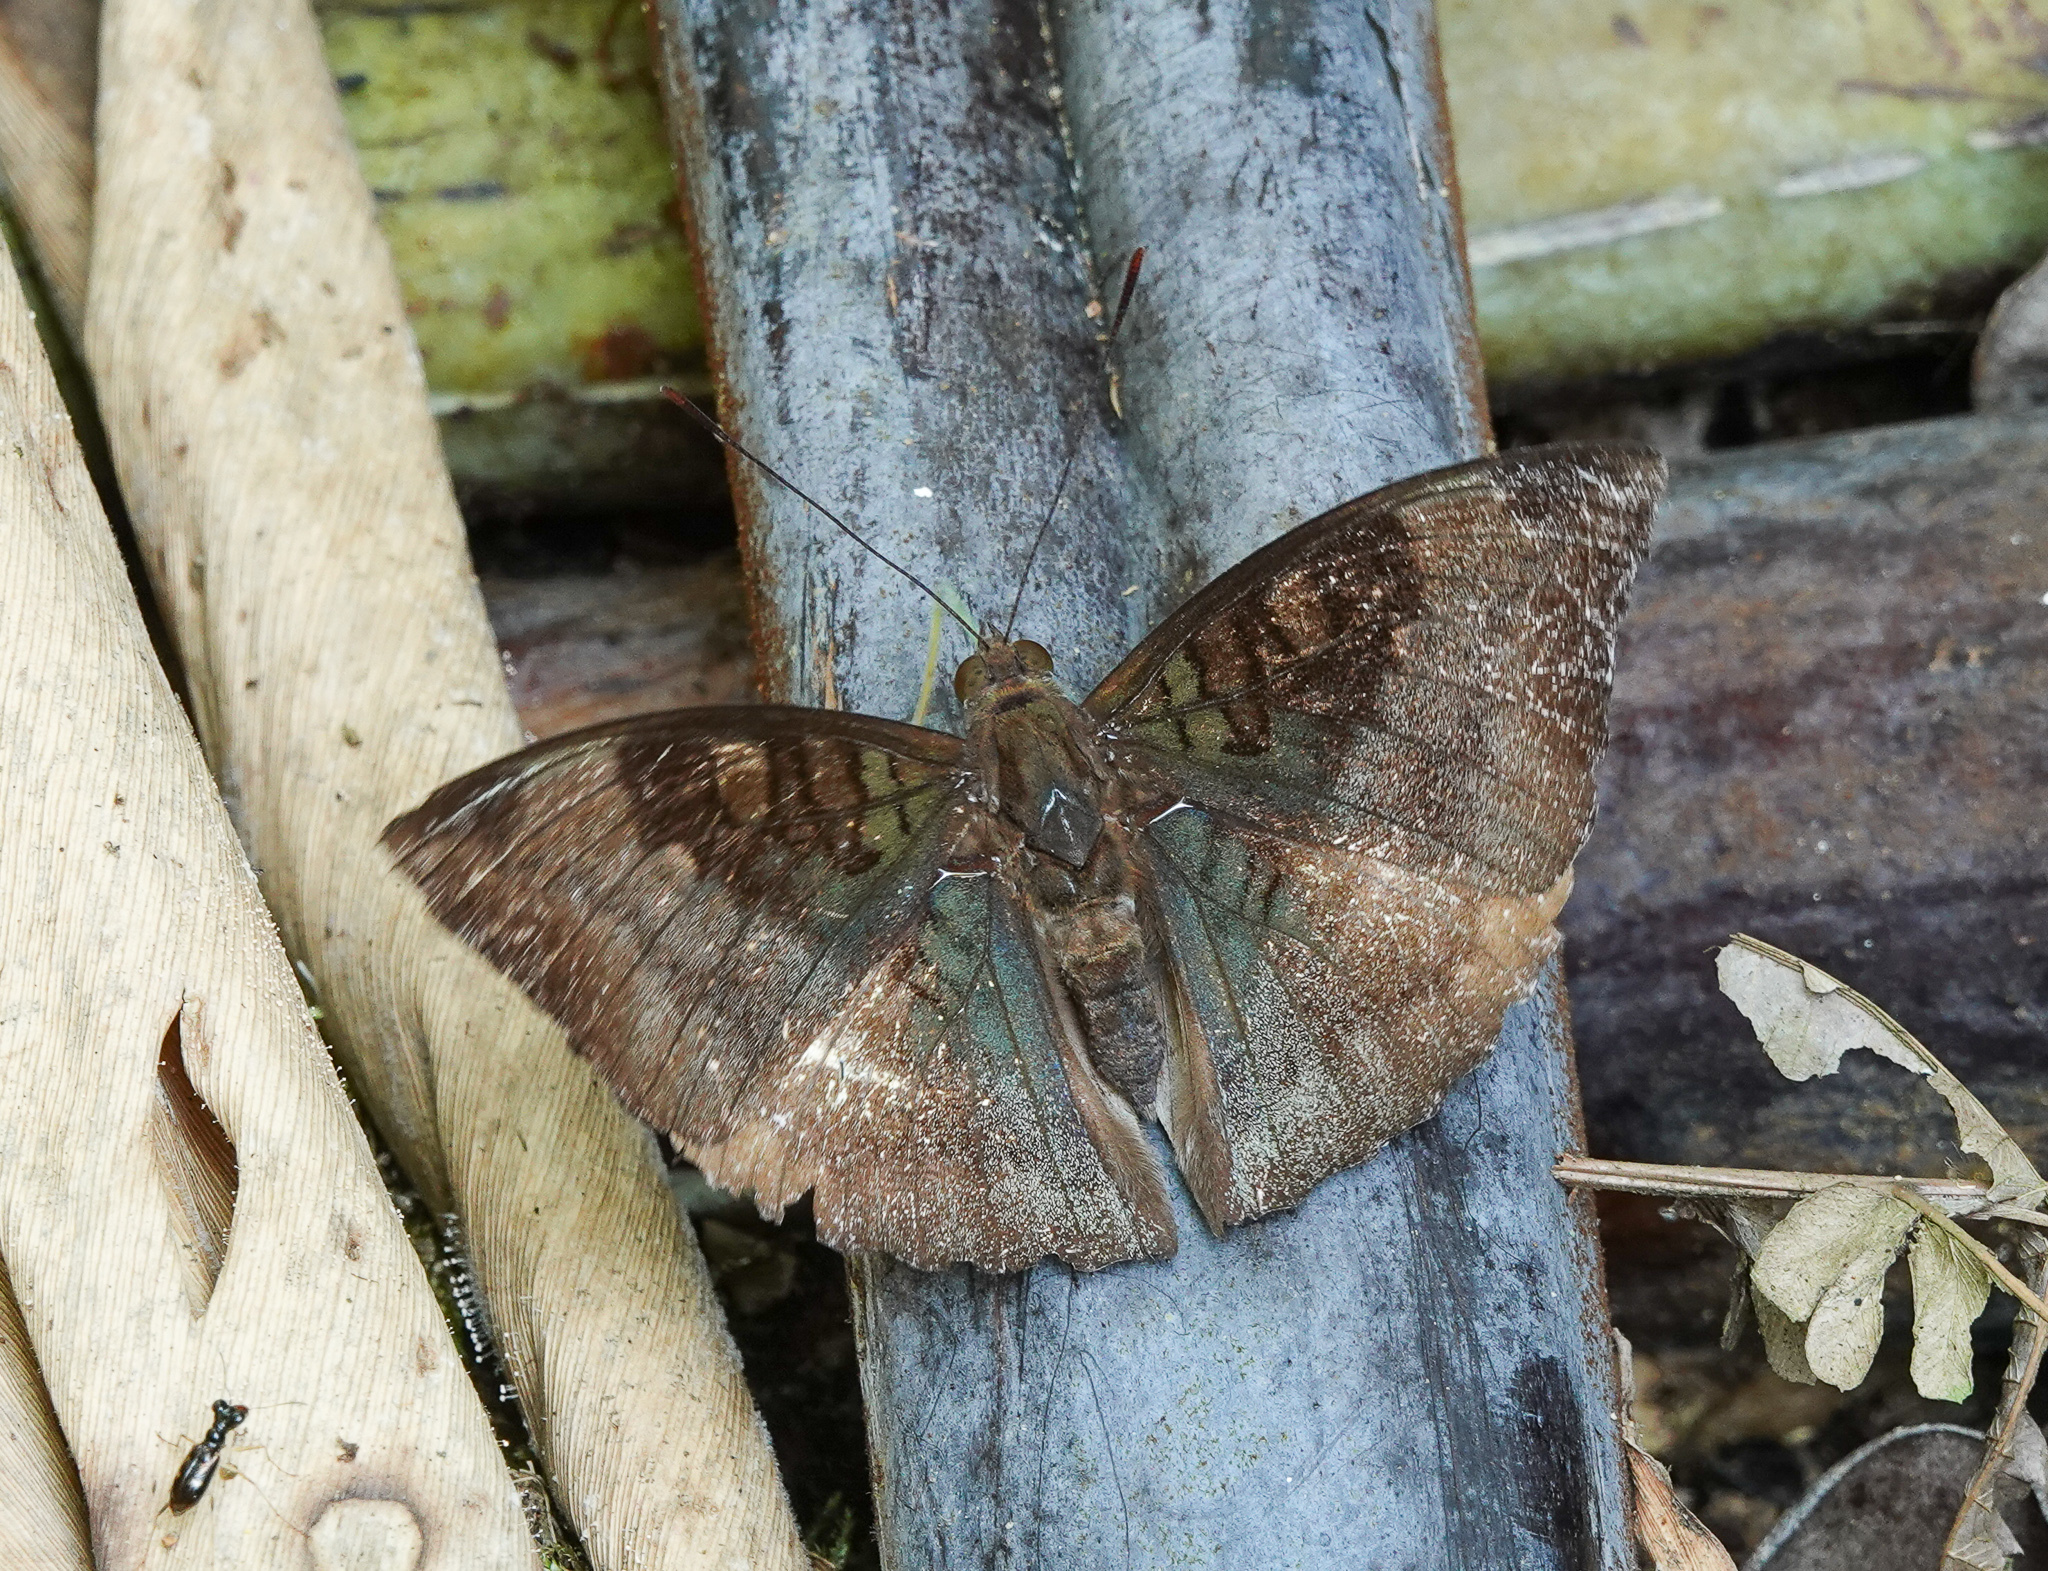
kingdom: Animalia
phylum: Arthropoda
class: Insecta
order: Lepidoptera
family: Nymphalidae
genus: Euthalia
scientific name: Euthalia monina
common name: Powdered baron
